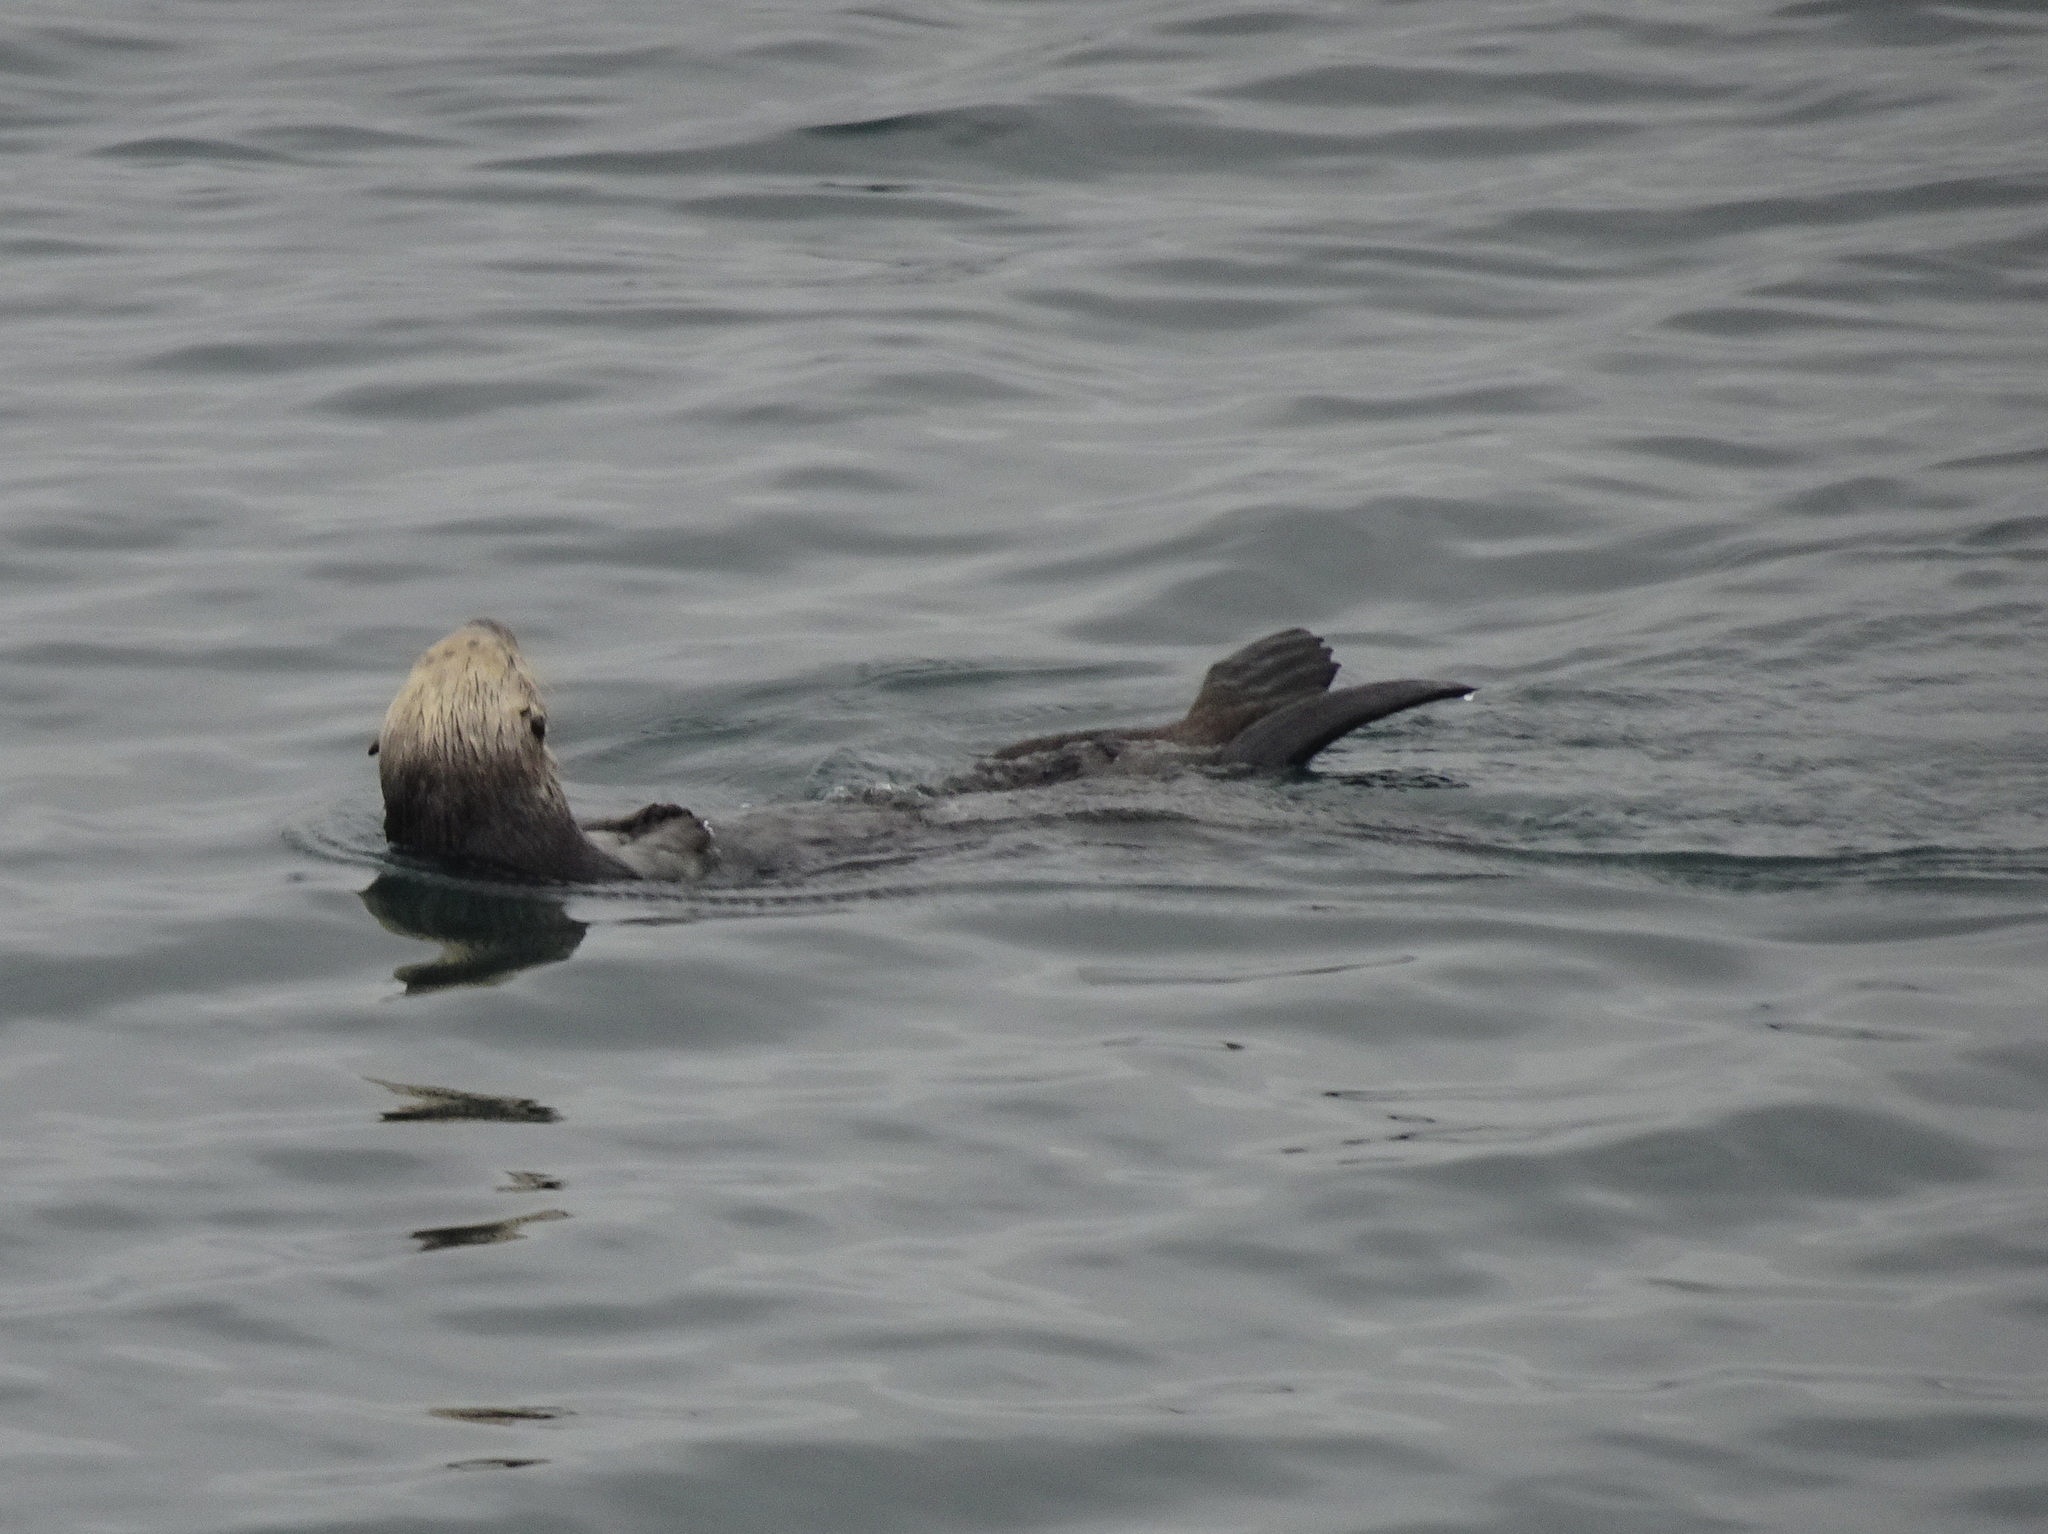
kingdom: Animalia
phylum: Chordata
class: Mammalia
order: Carnivora
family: Mustelidae
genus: Enhydra
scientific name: Enhydra lutris
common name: Sea otter
